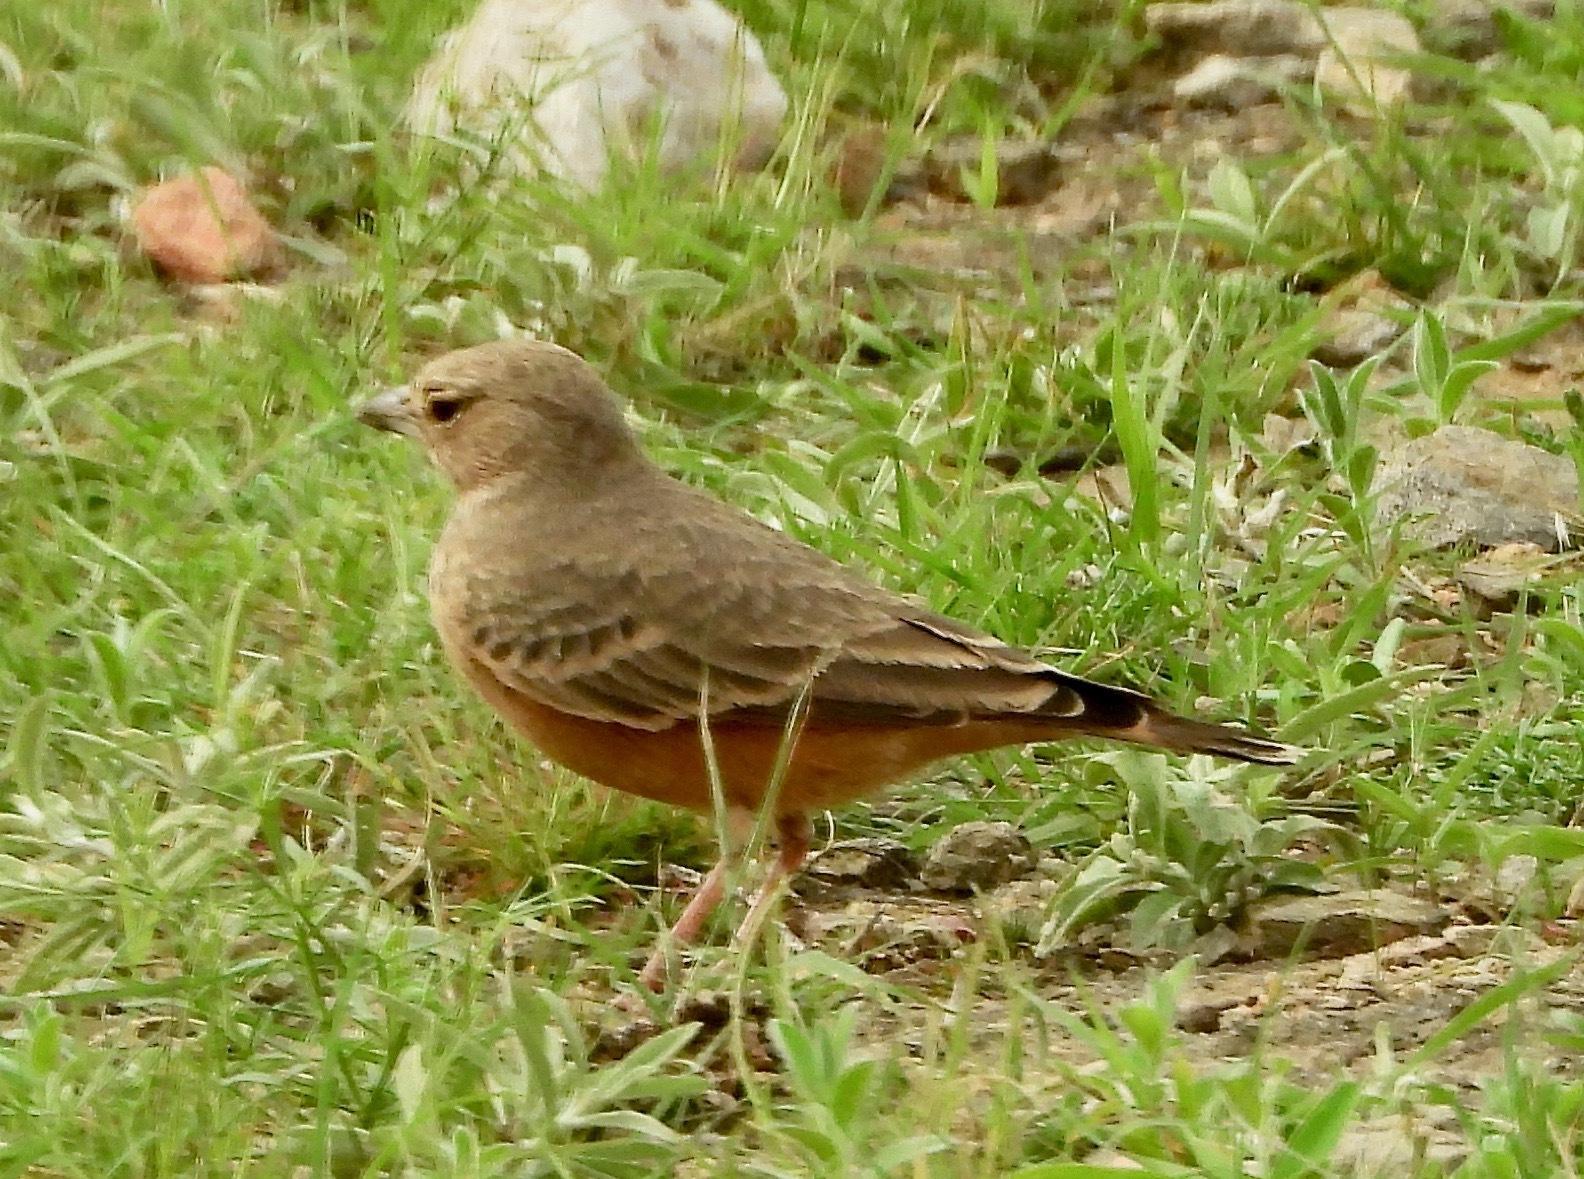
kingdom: Animalia
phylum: Chordata
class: Aves
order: Passeriformes
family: Alaudidae
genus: Ammomanes
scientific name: Ammomanes phoenicura
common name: Rufous-tailed lark
